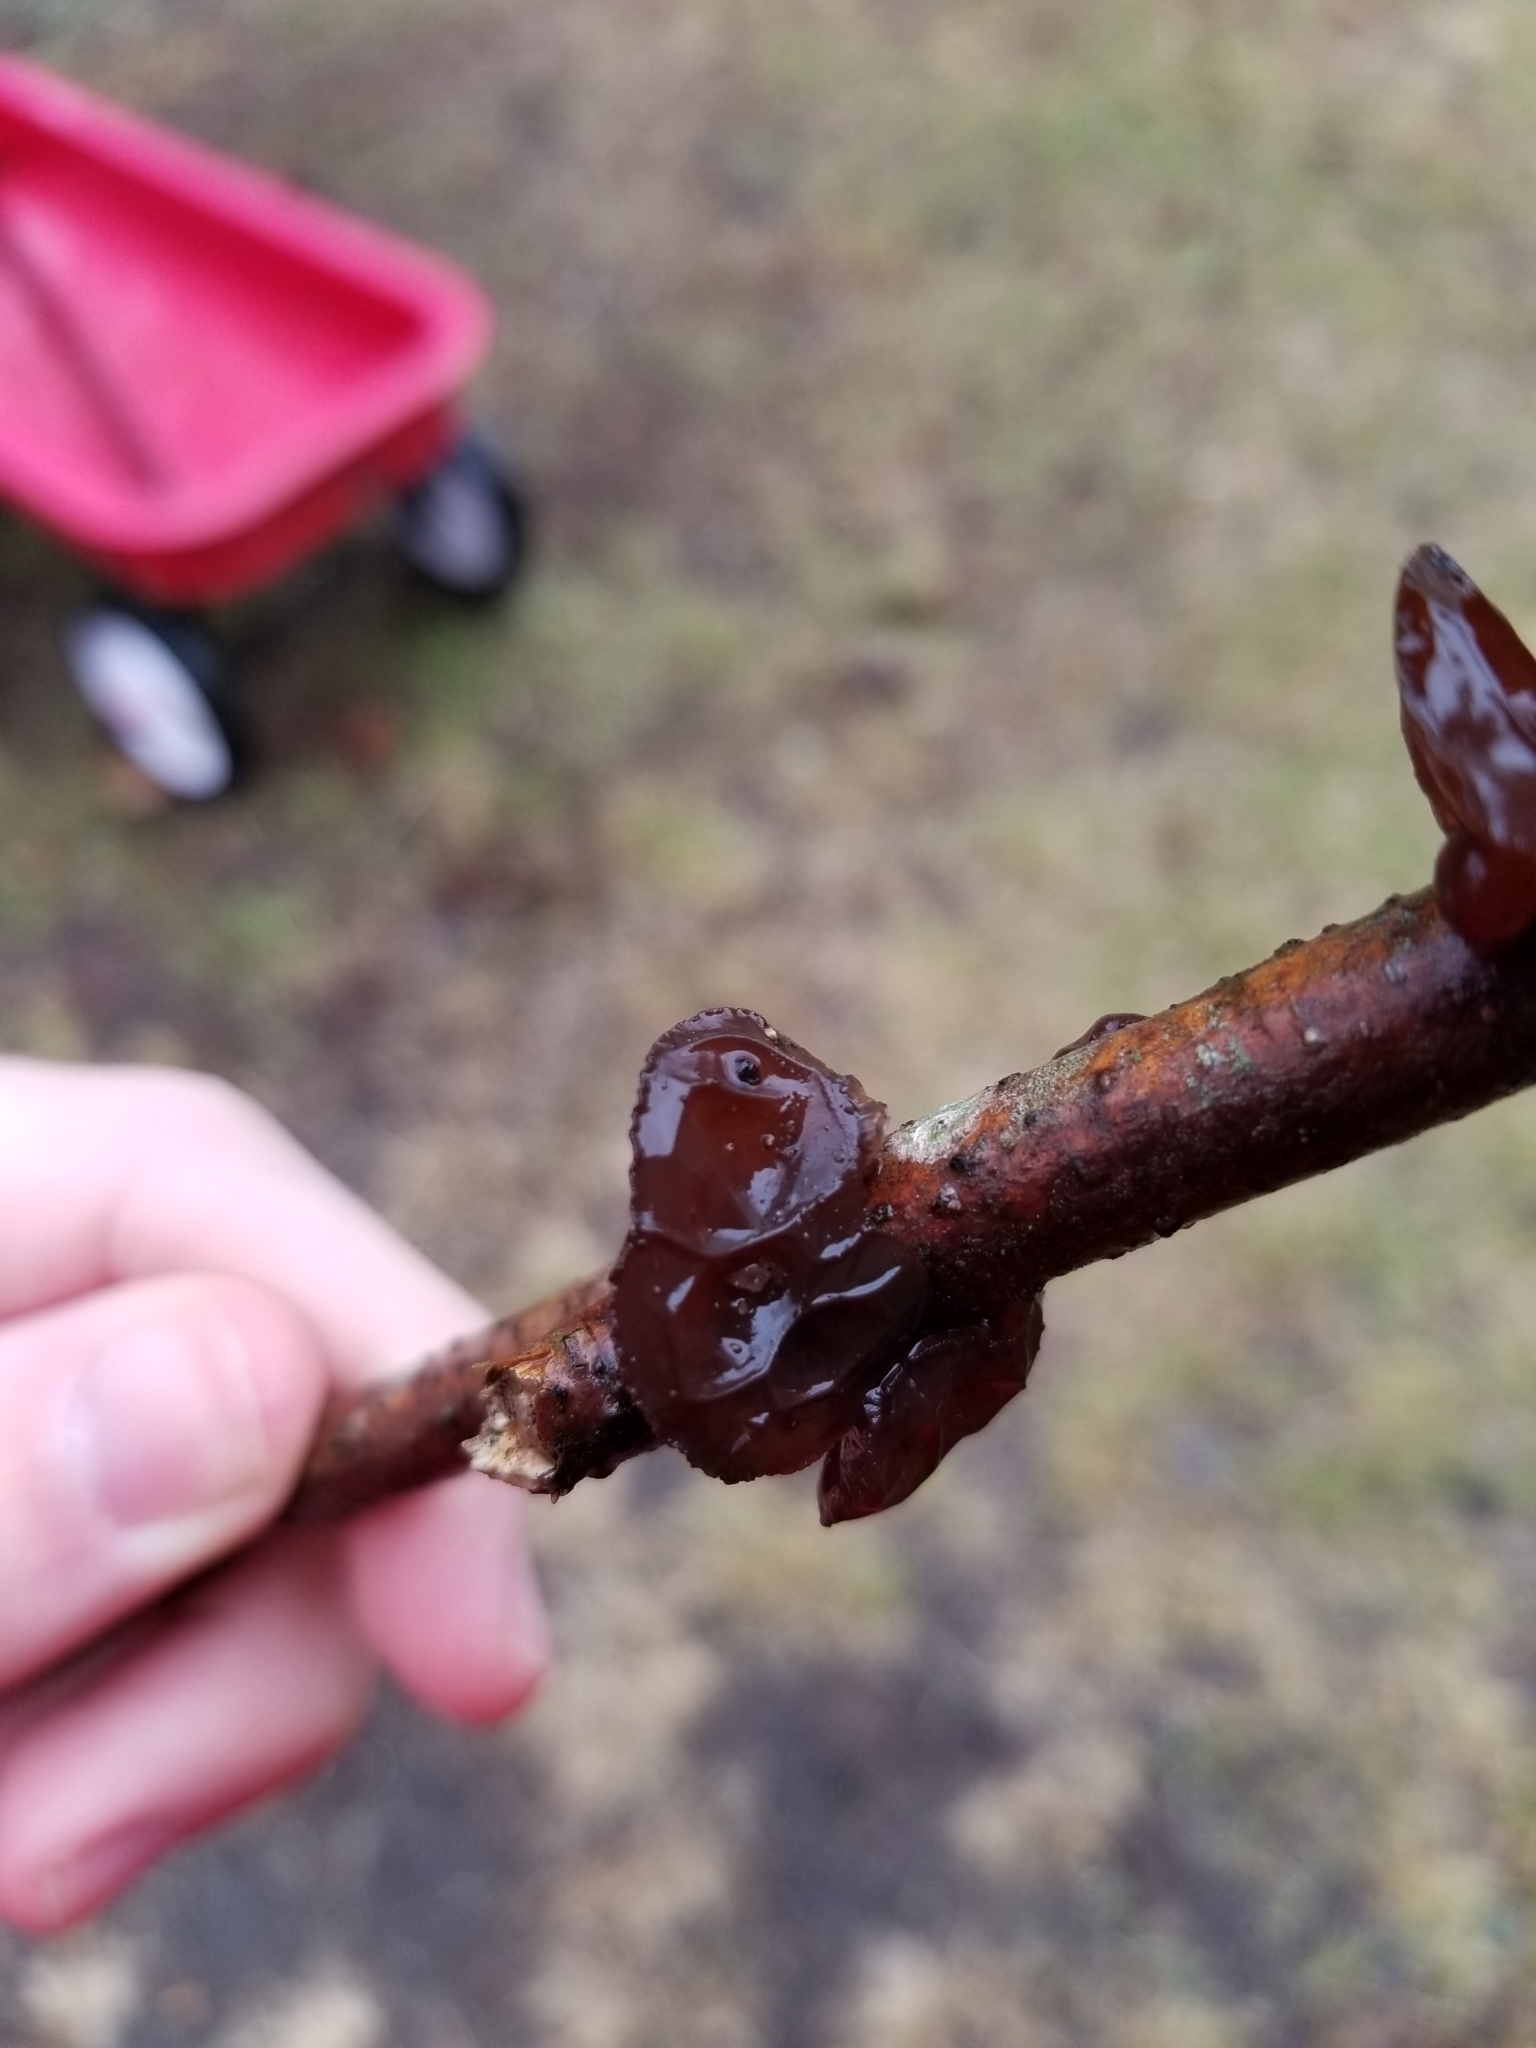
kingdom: Fungi
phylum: Basidiomycota
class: Agaricomycetes
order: Auriculariales
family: Auriculariaceae
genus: Exidia
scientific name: Exidia
